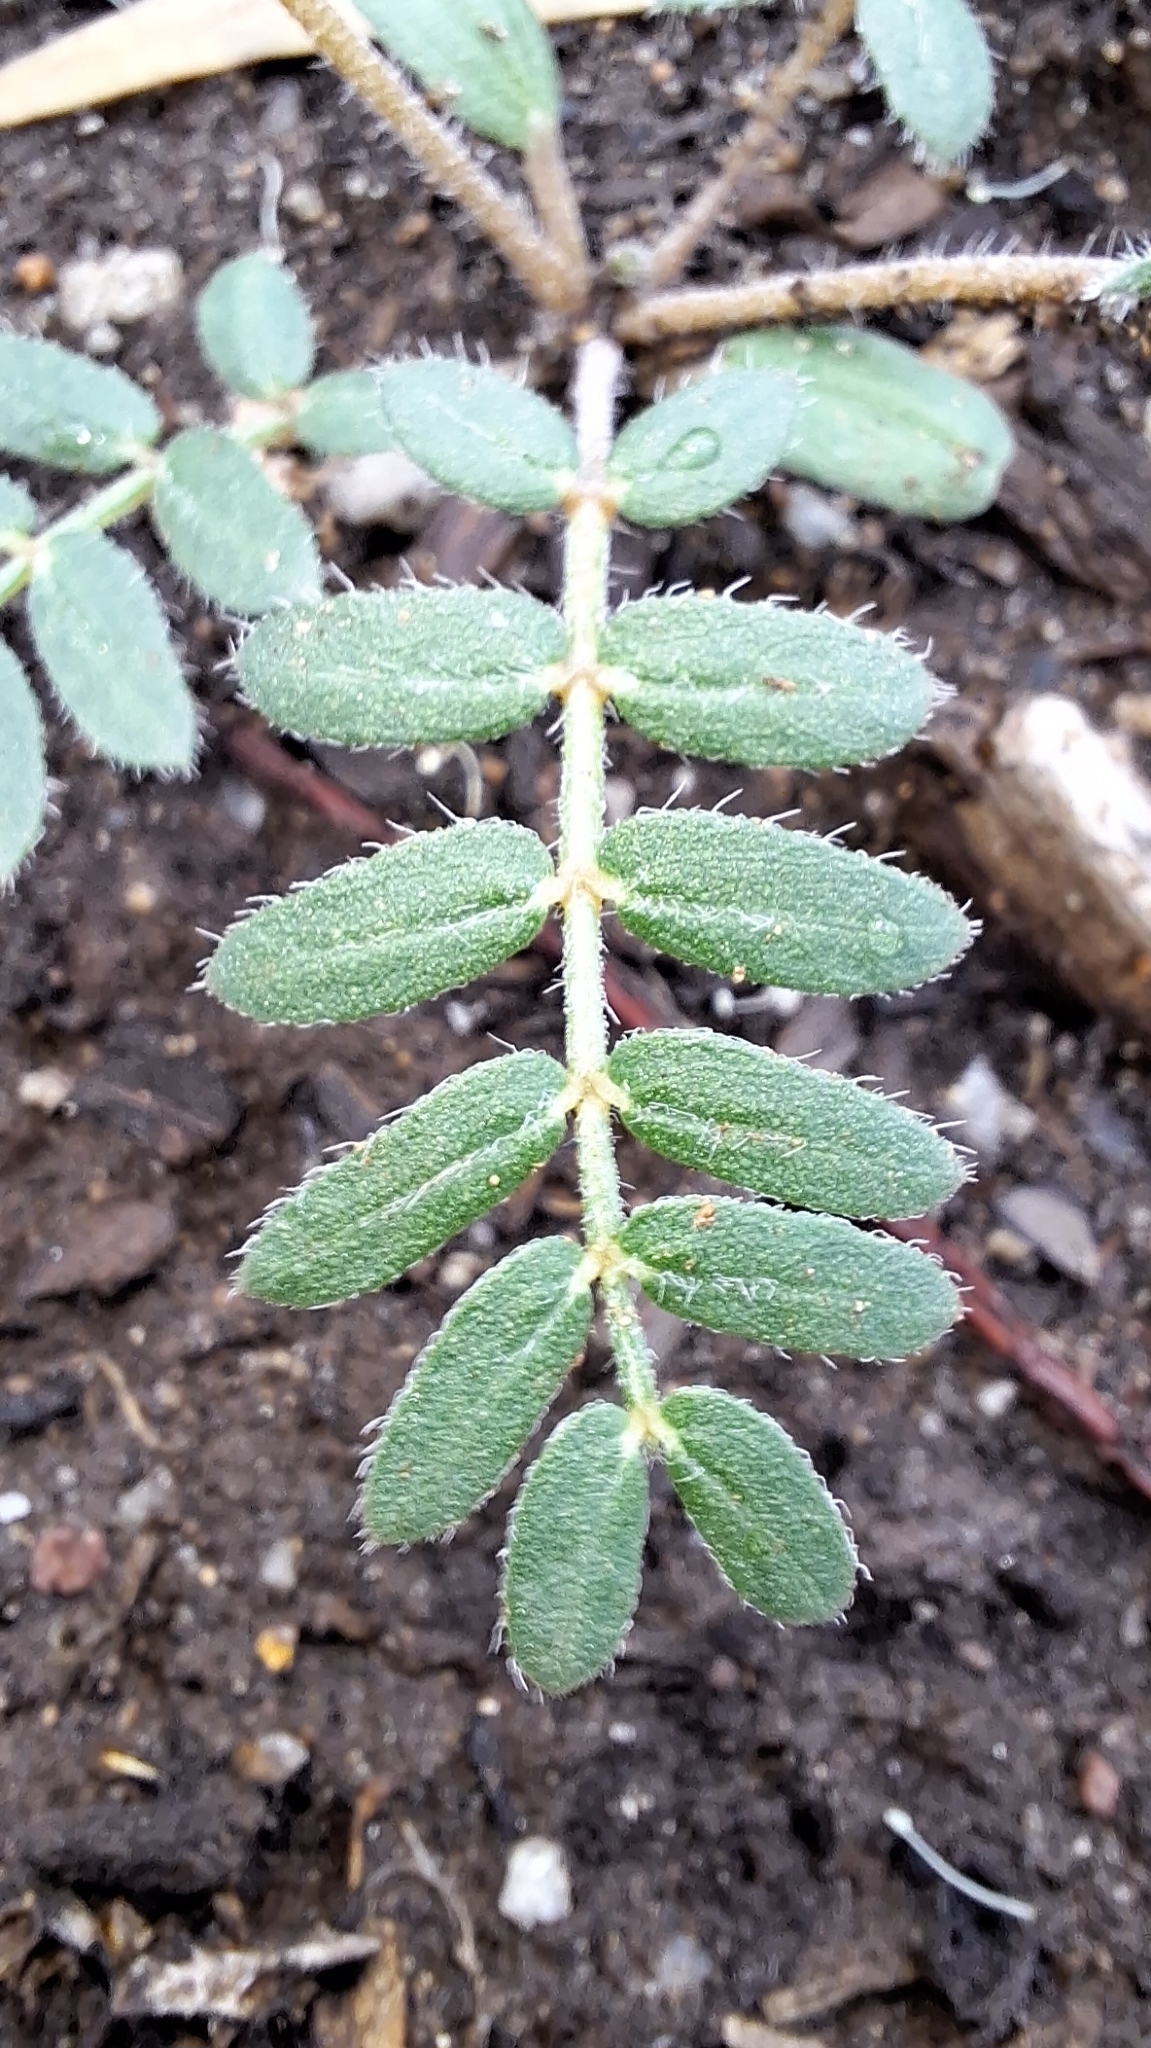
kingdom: Plantae
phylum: Tracheophyta
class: Magnoliopsida
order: Zygophyllales
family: Zygophyllaceae
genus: Tribulus
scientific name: Tribulus terrestris
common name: Puncturevine
